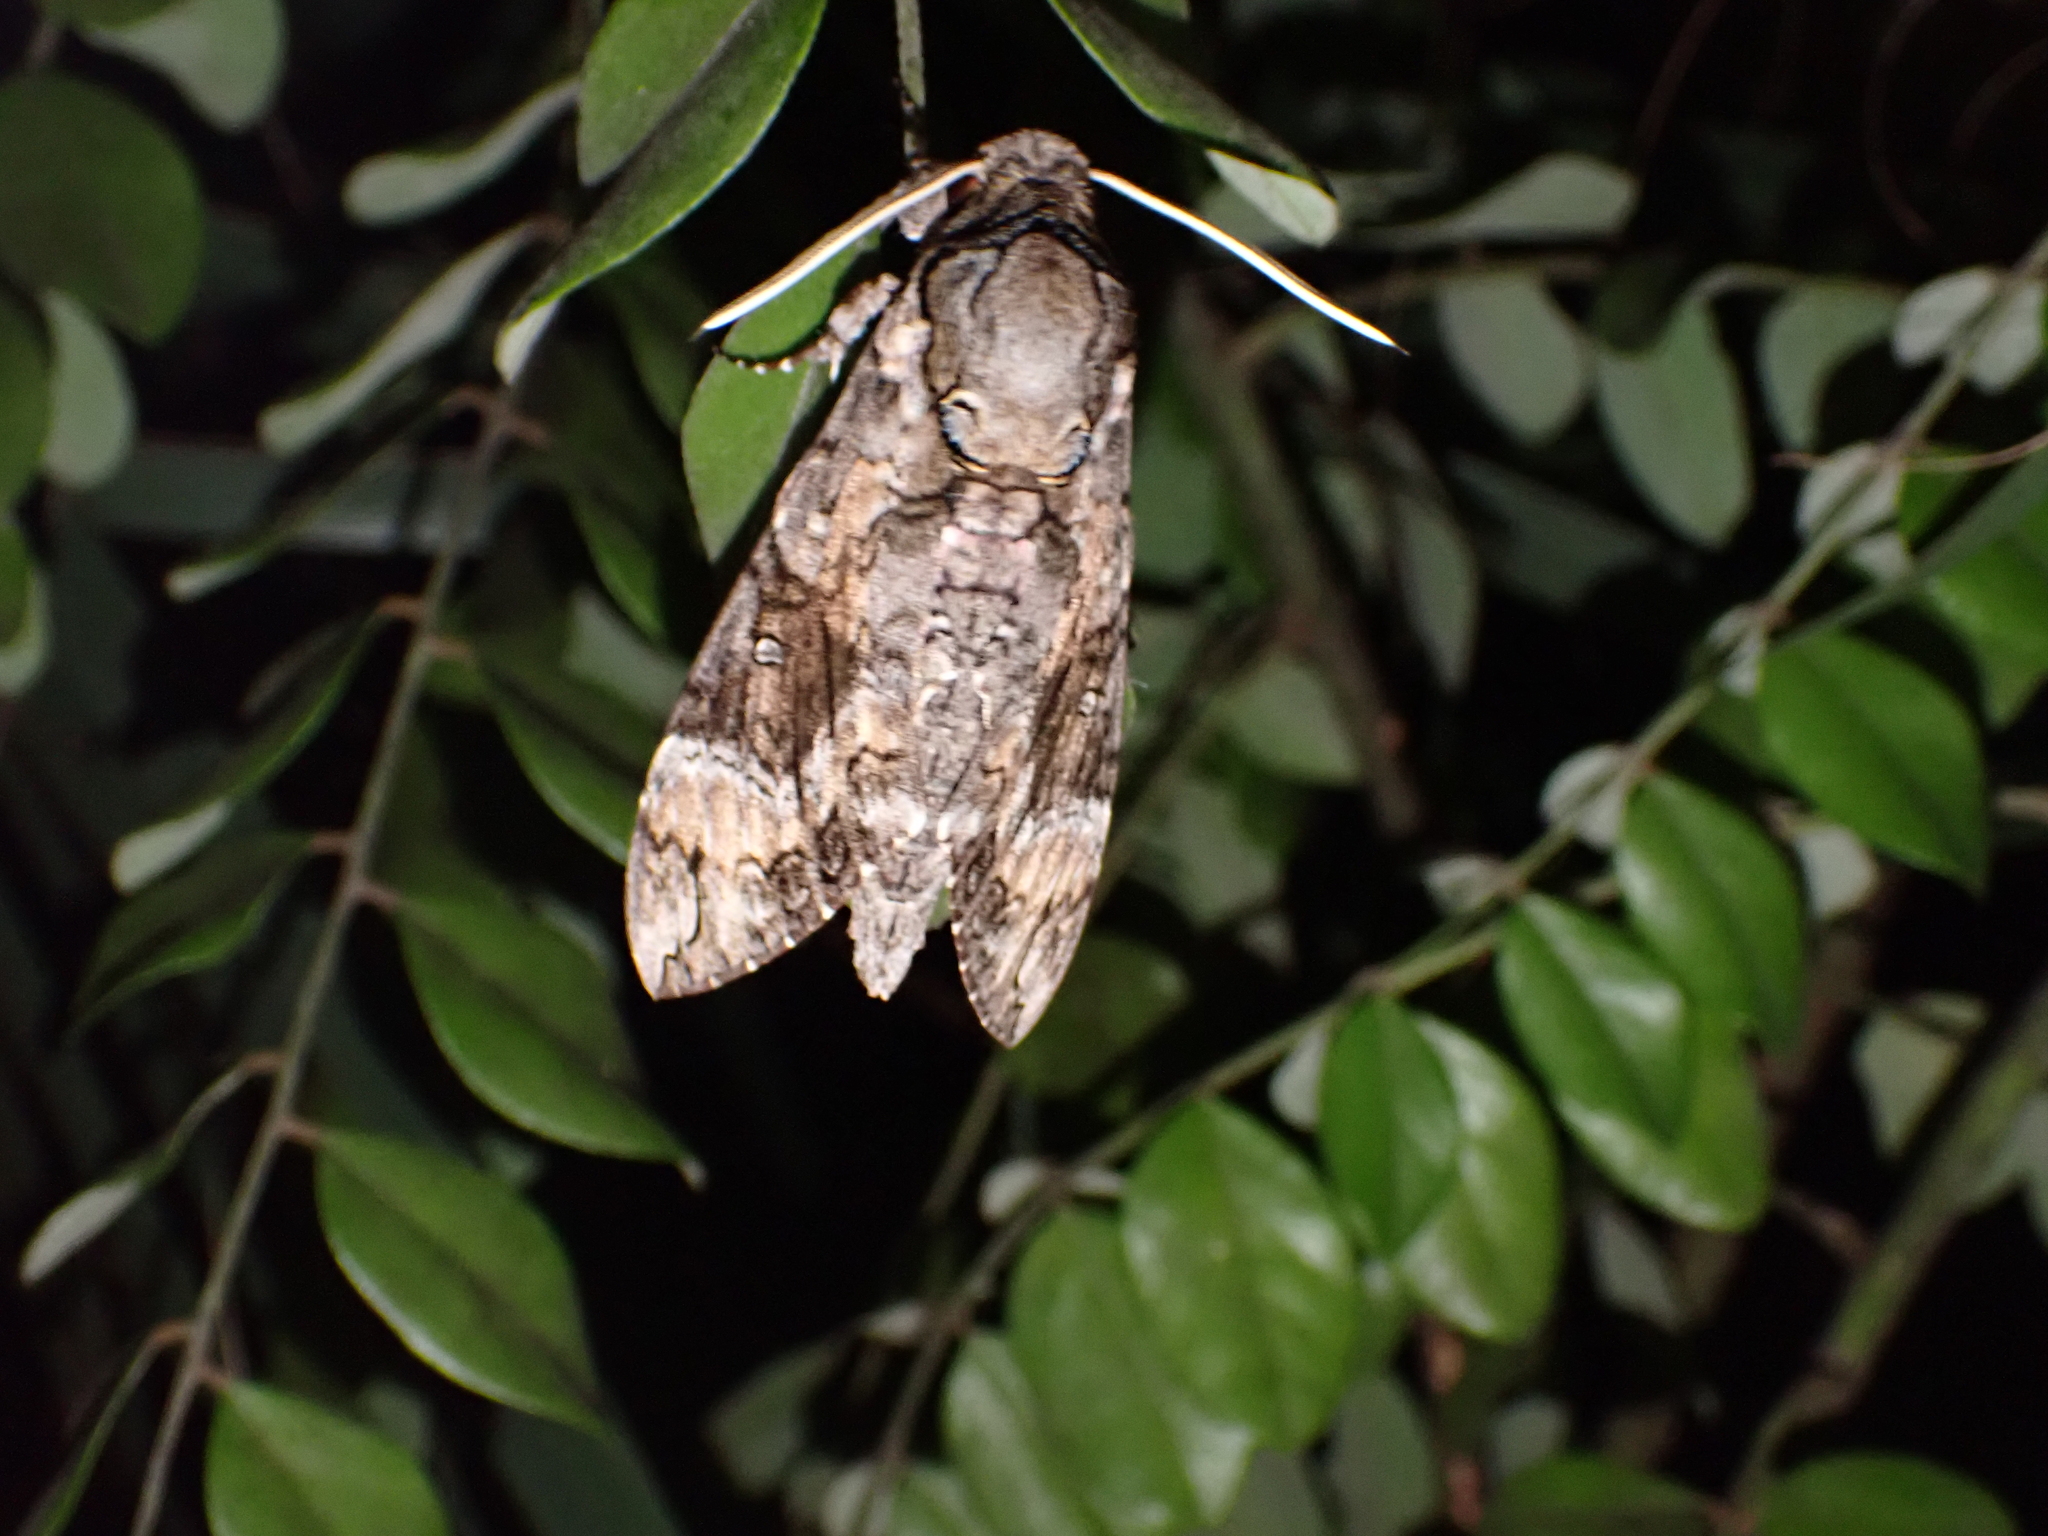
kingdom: Animalia
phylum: Arthropoda
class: Insecta
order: Lepidoptera
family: Sphingidae
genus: Agrius
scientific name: Agrius cingulata
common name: Pink-spotted hawkmoth
